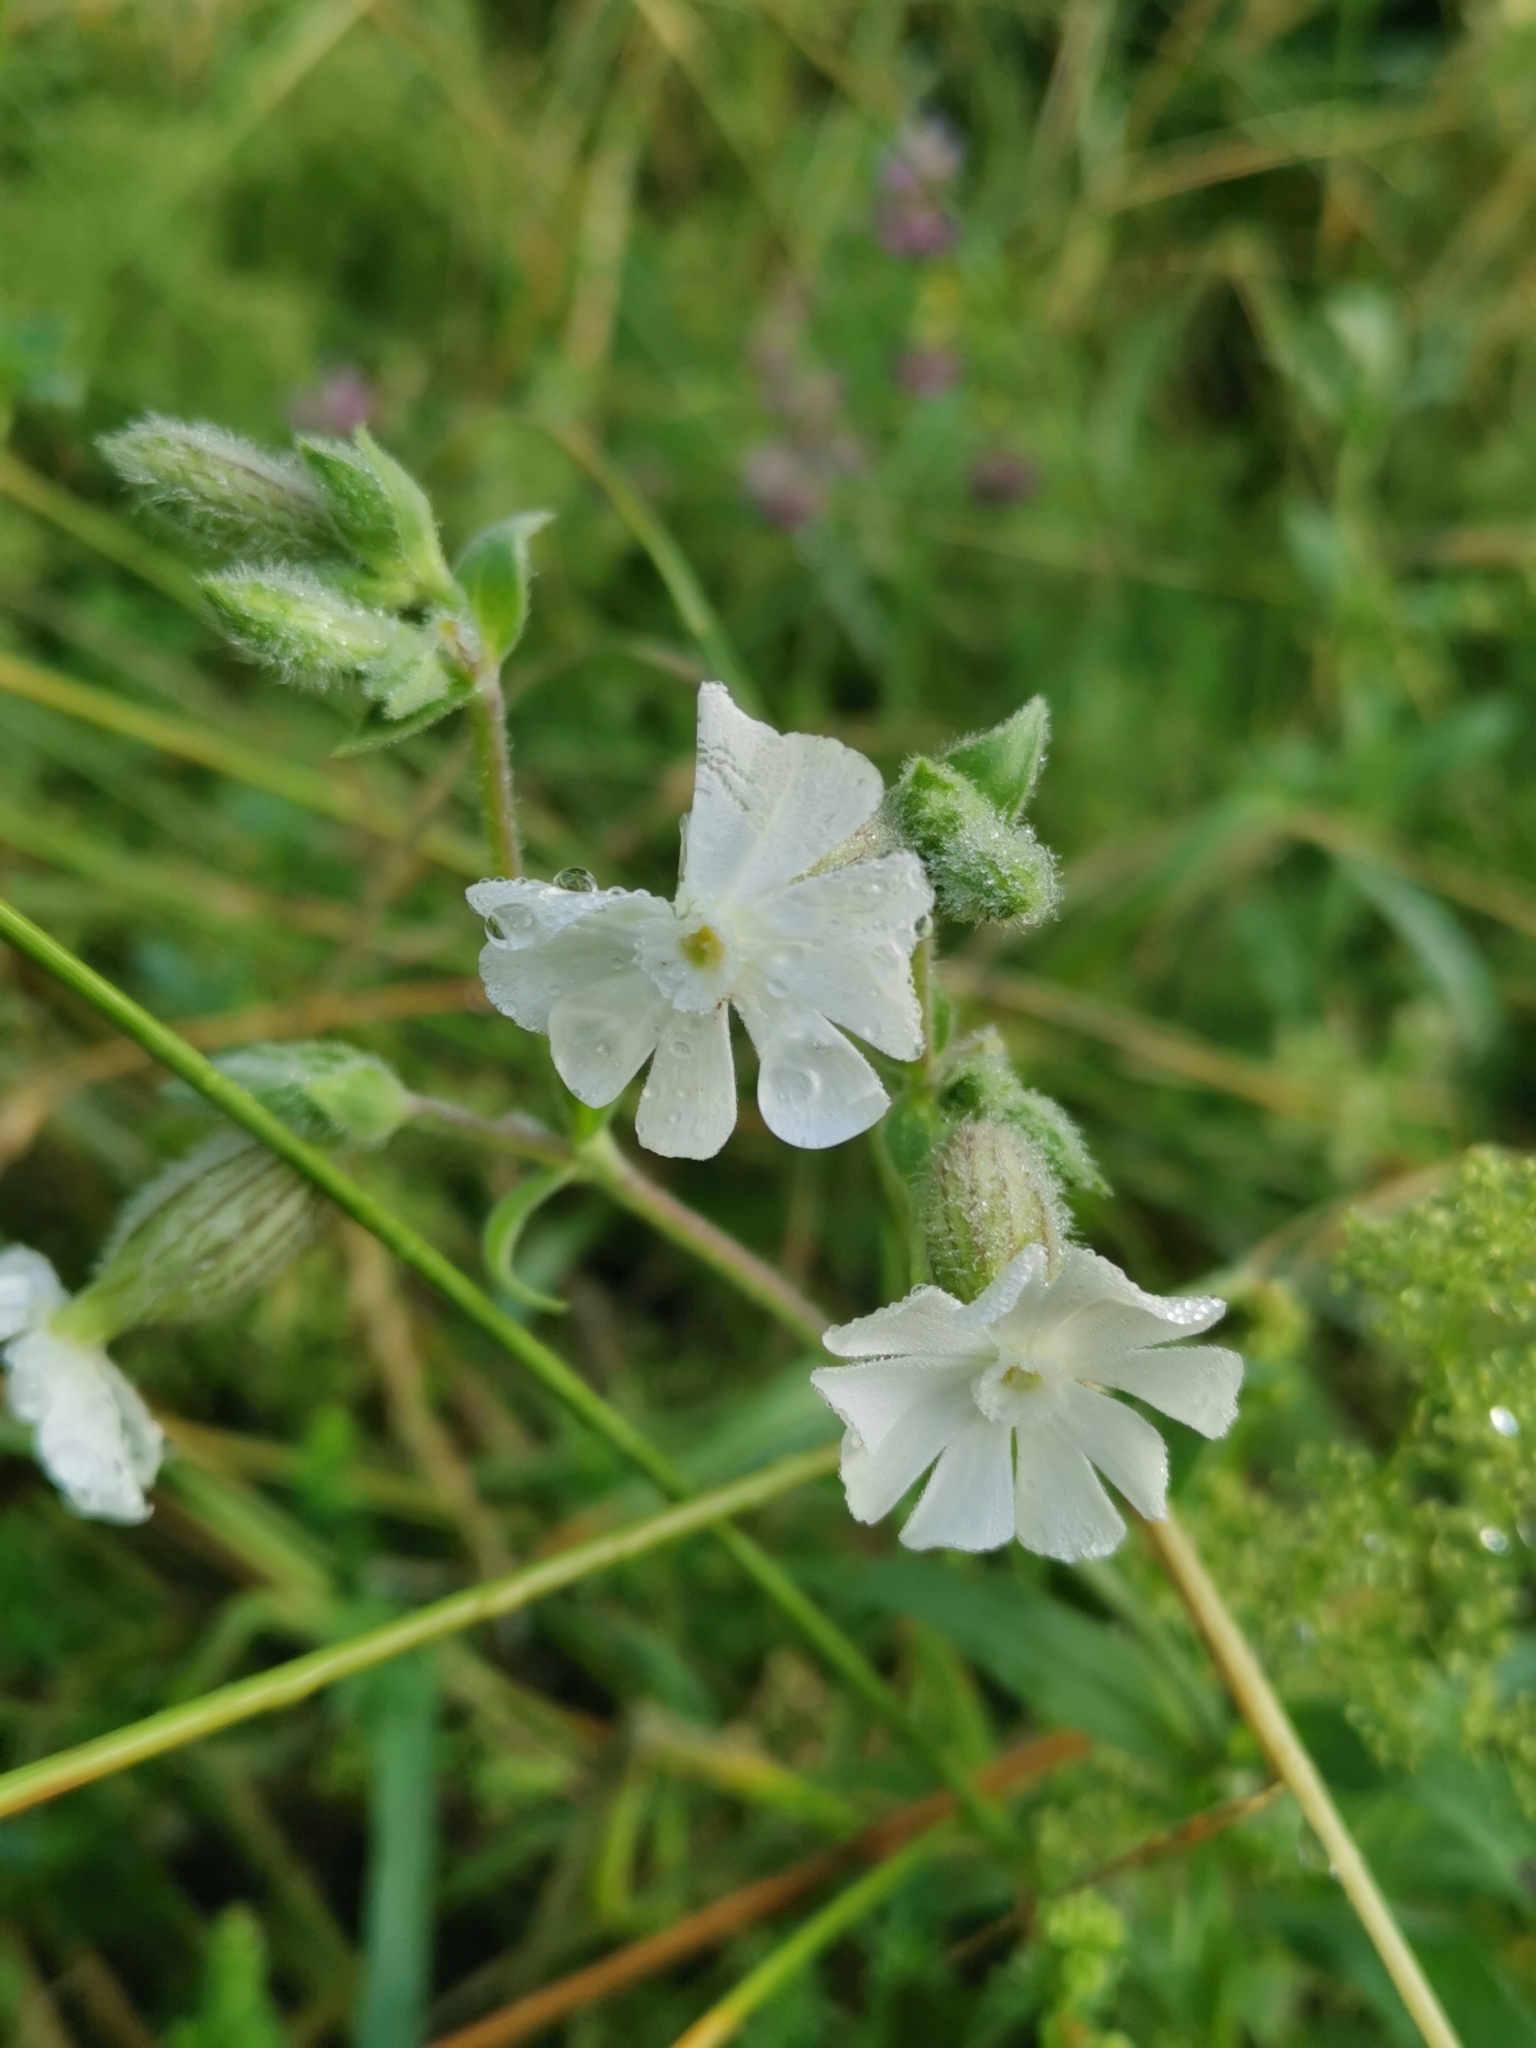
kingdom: Plantae
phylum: Tracheophyta
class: Magnoliopsida
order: Caryophyllales
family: Caryophyllaceae
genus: Silene
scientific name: Silene latifolia
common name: White campion
